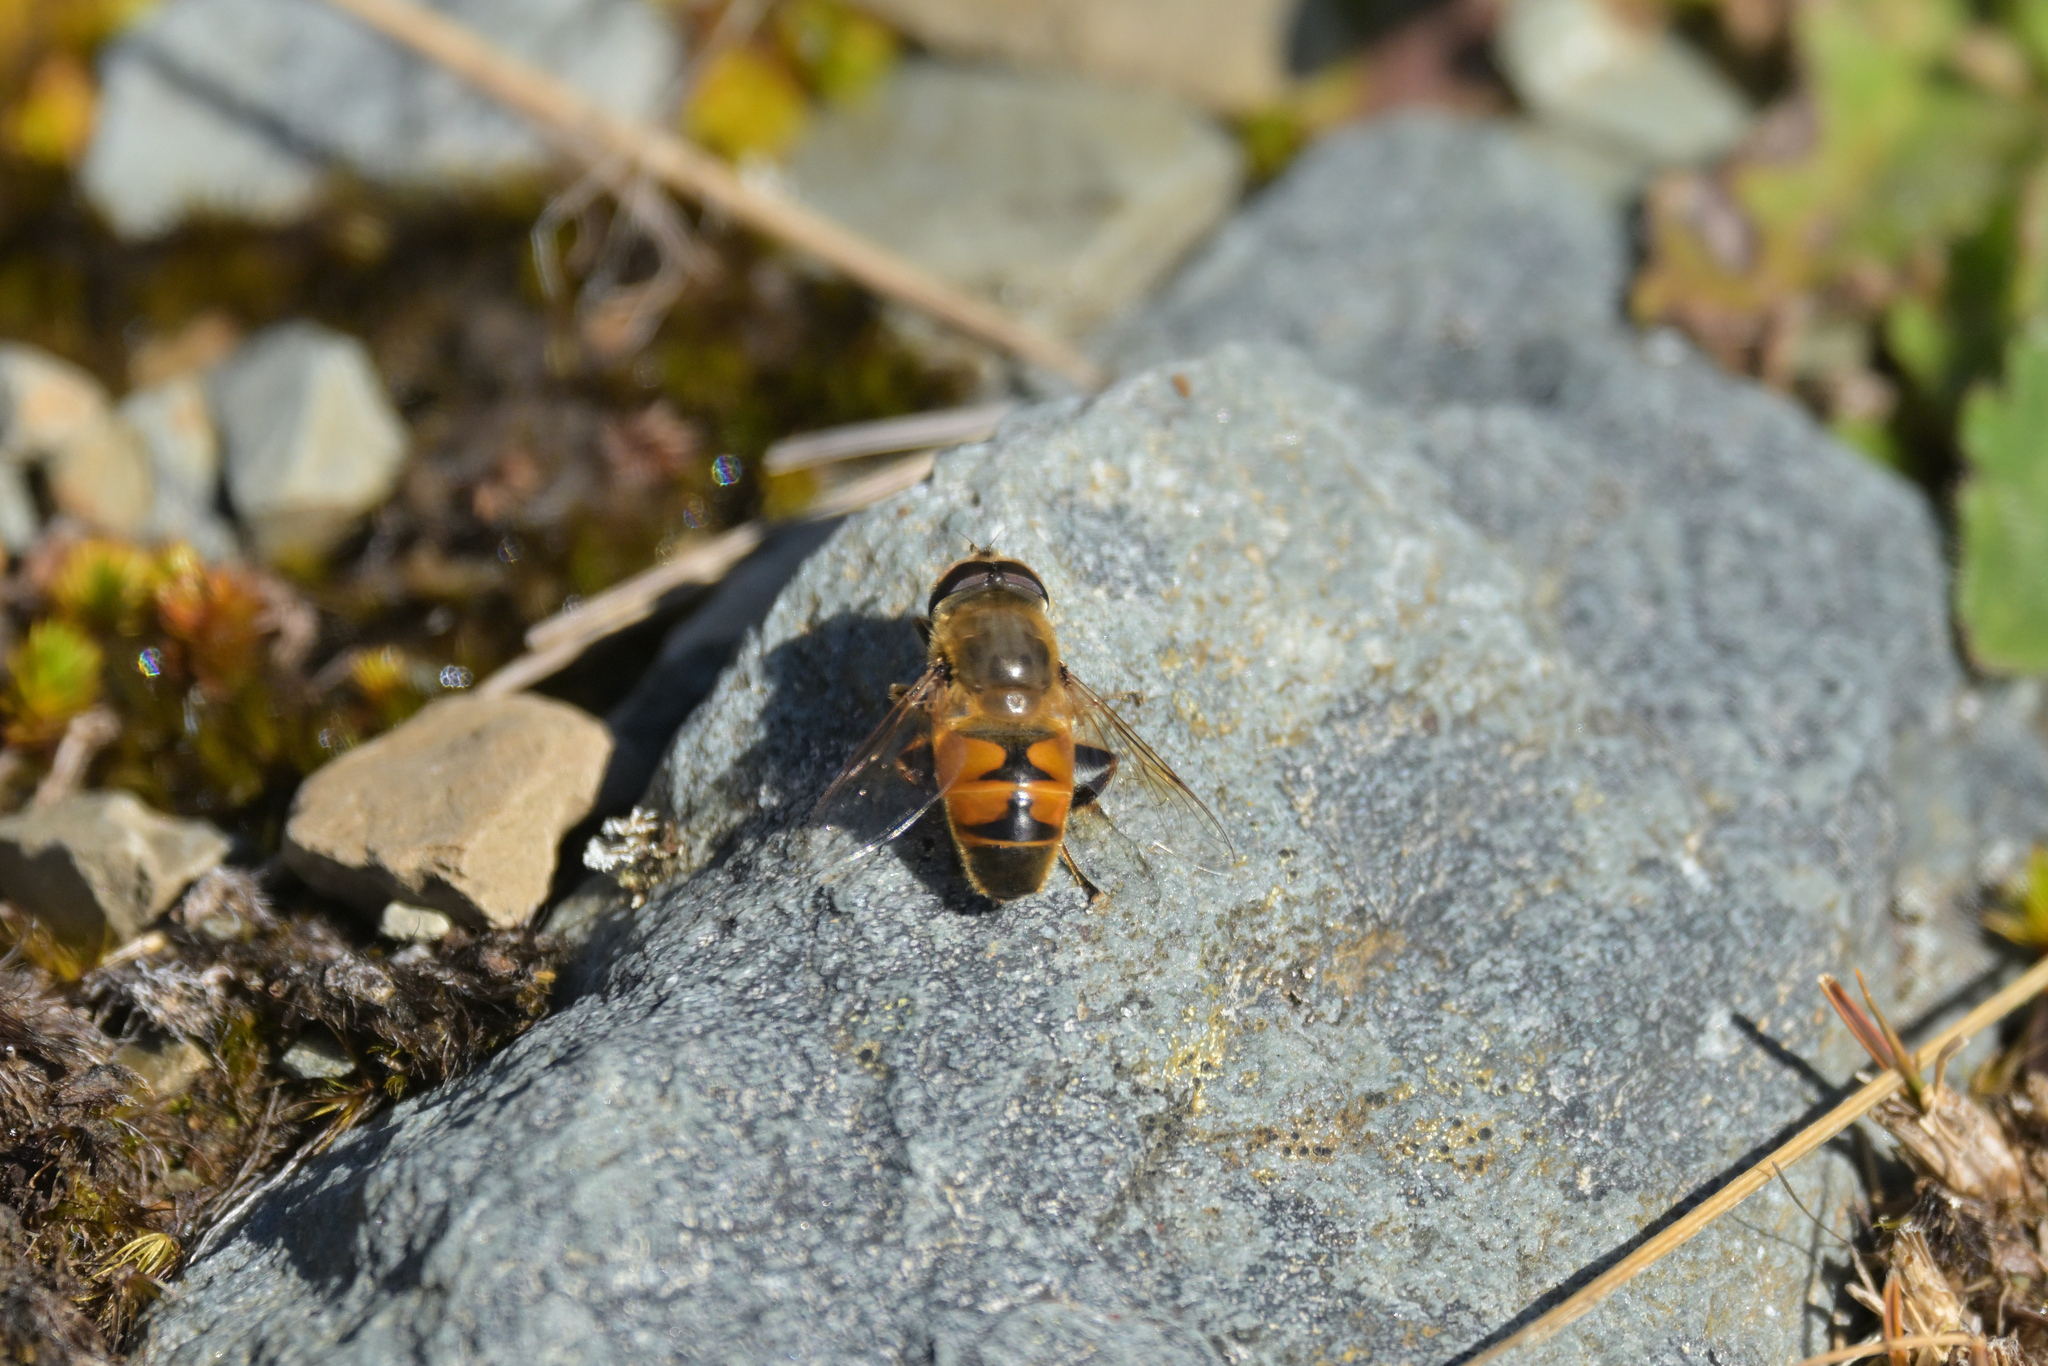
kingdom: Animalia
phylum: Arthropoda
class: Insecta
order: Diptera
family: Syrphidae
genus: Eristalis
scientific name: Eristalis tenax
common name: Drone fly
